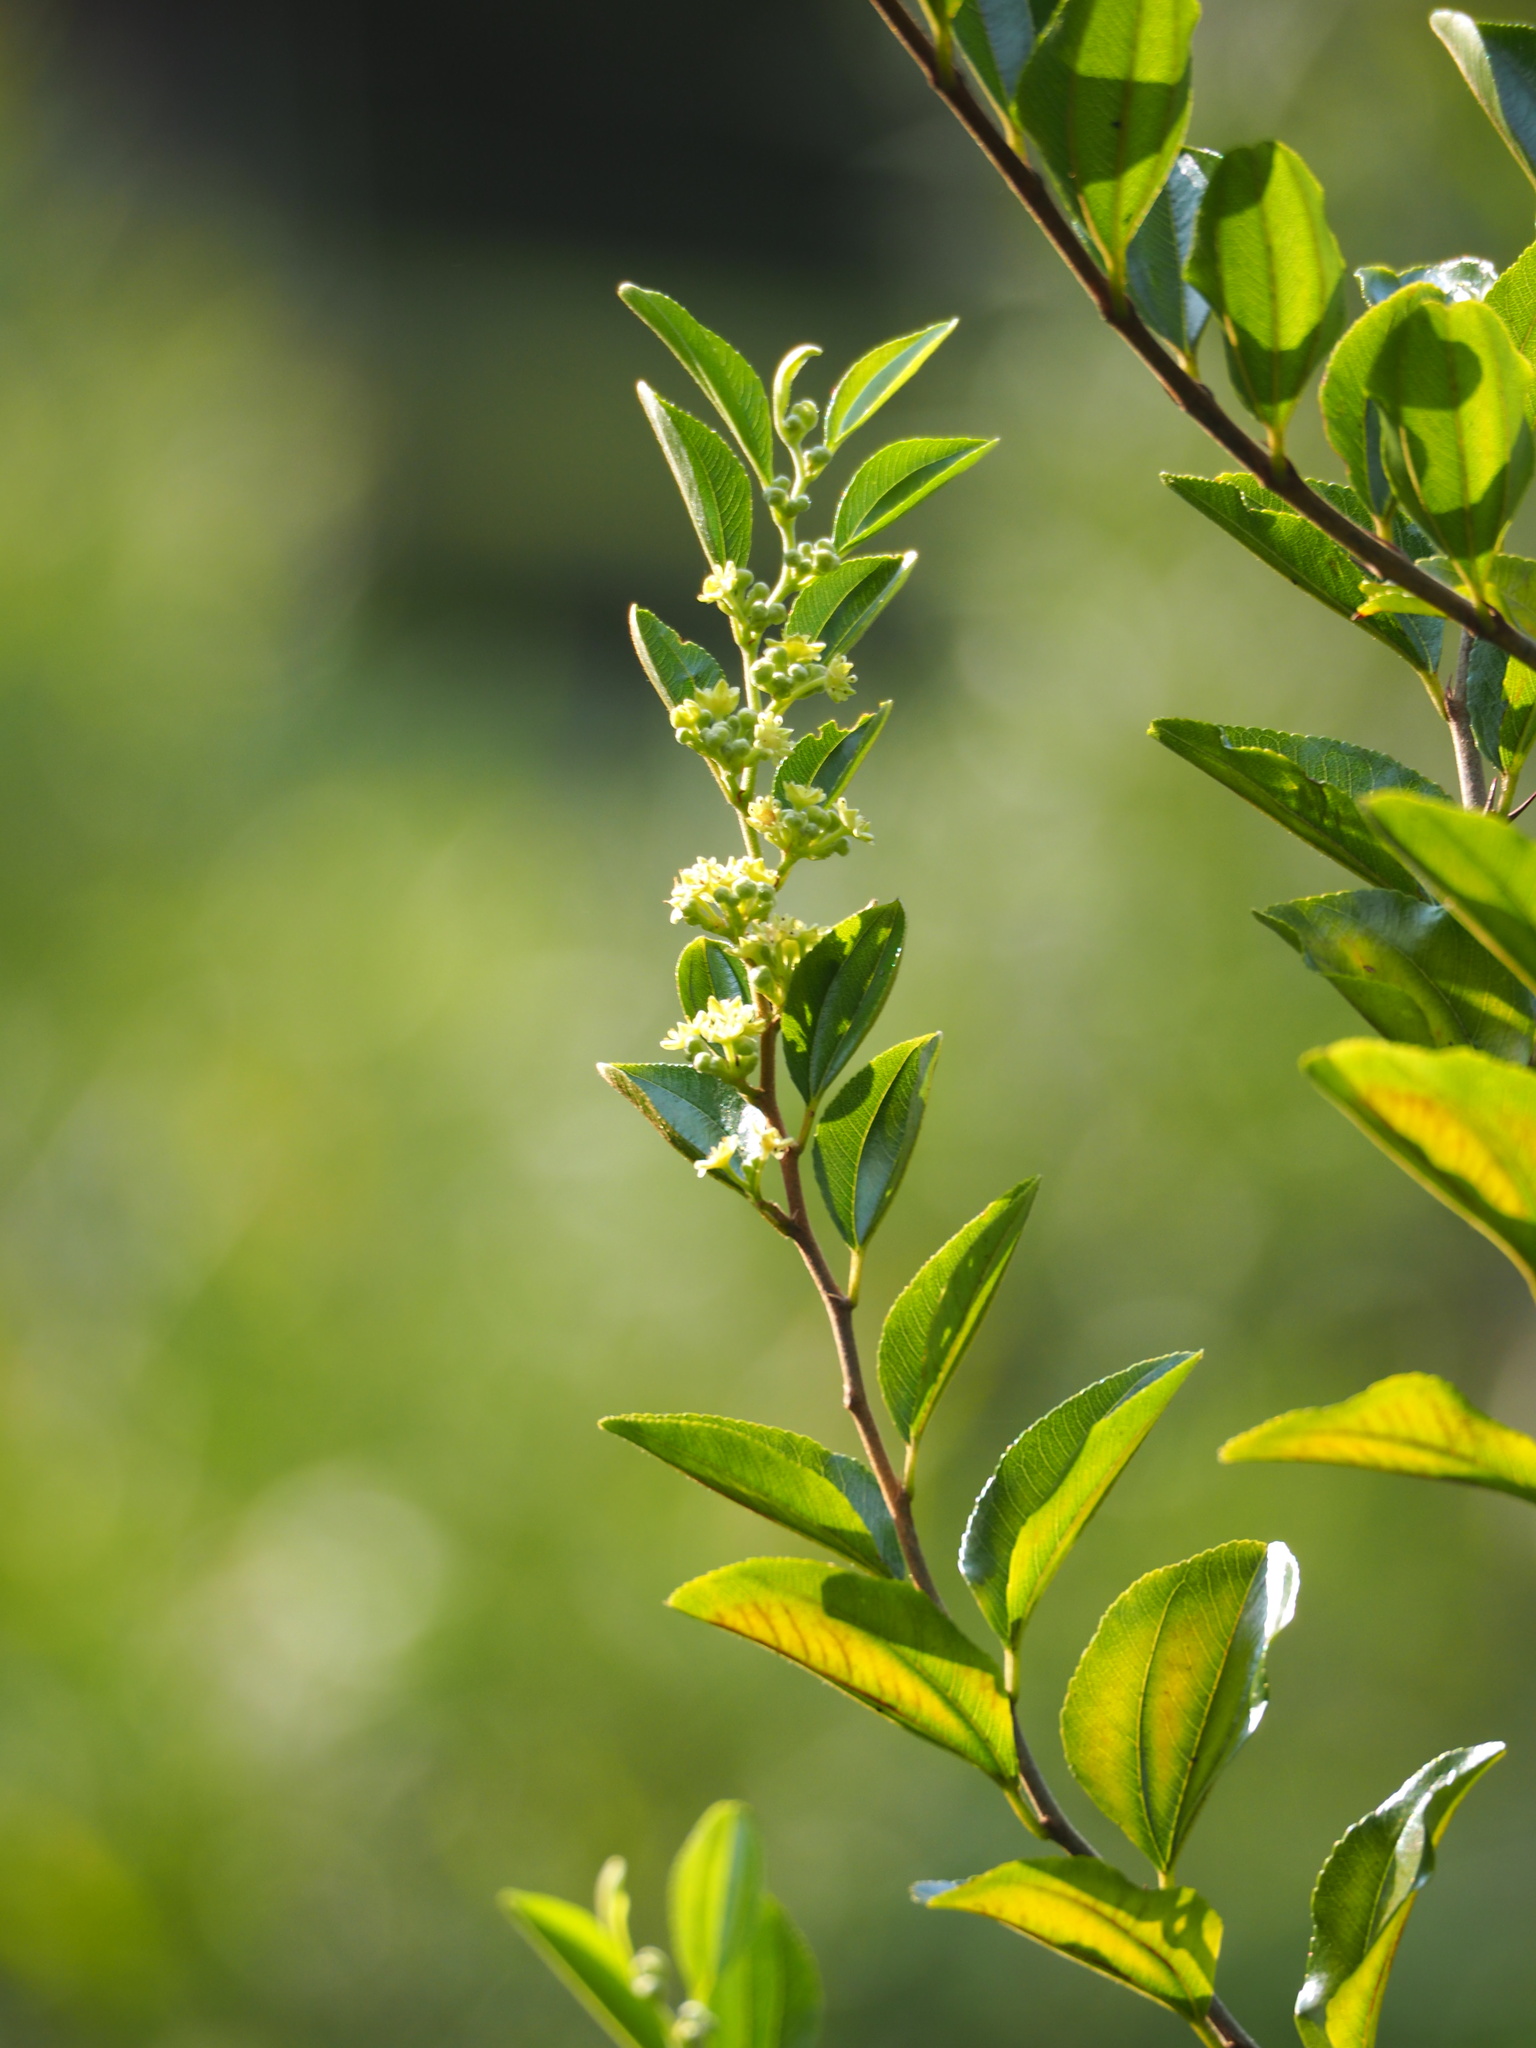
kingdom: Plantae
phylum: Tracheophyta
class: Magnoliopsida
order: Rosales
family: Rhamnaceae
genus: Paliurus
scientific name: Paliurus ramosissimus
